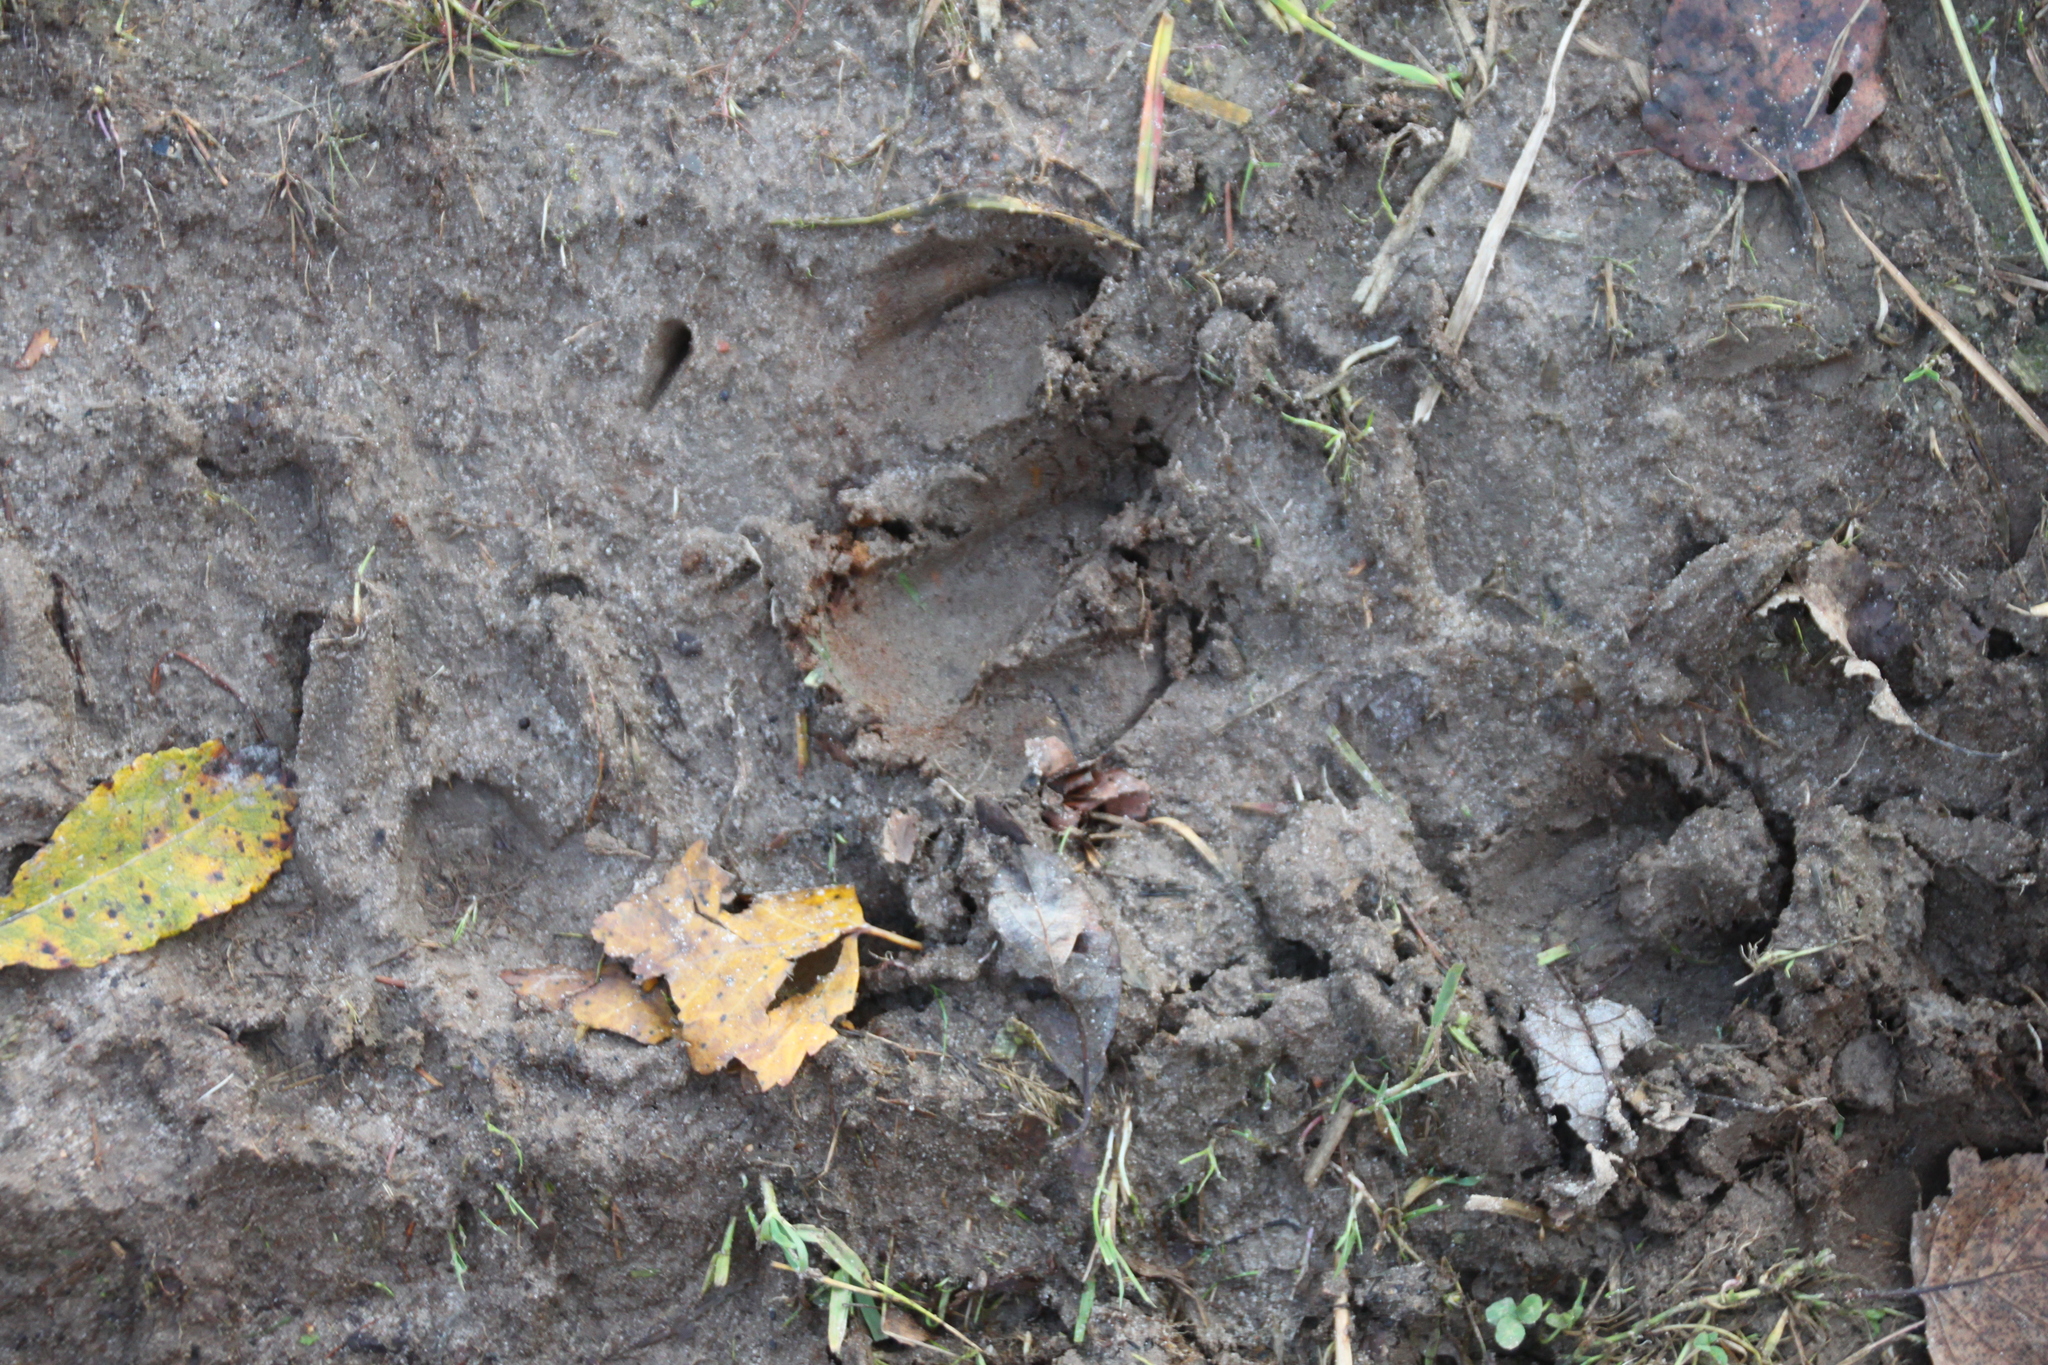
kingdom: Animalia
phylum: Chordata
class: Mammalia
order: Artiodactyla
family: Suidae
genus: Sus
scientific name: Sus scrofa
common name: Wild boar
